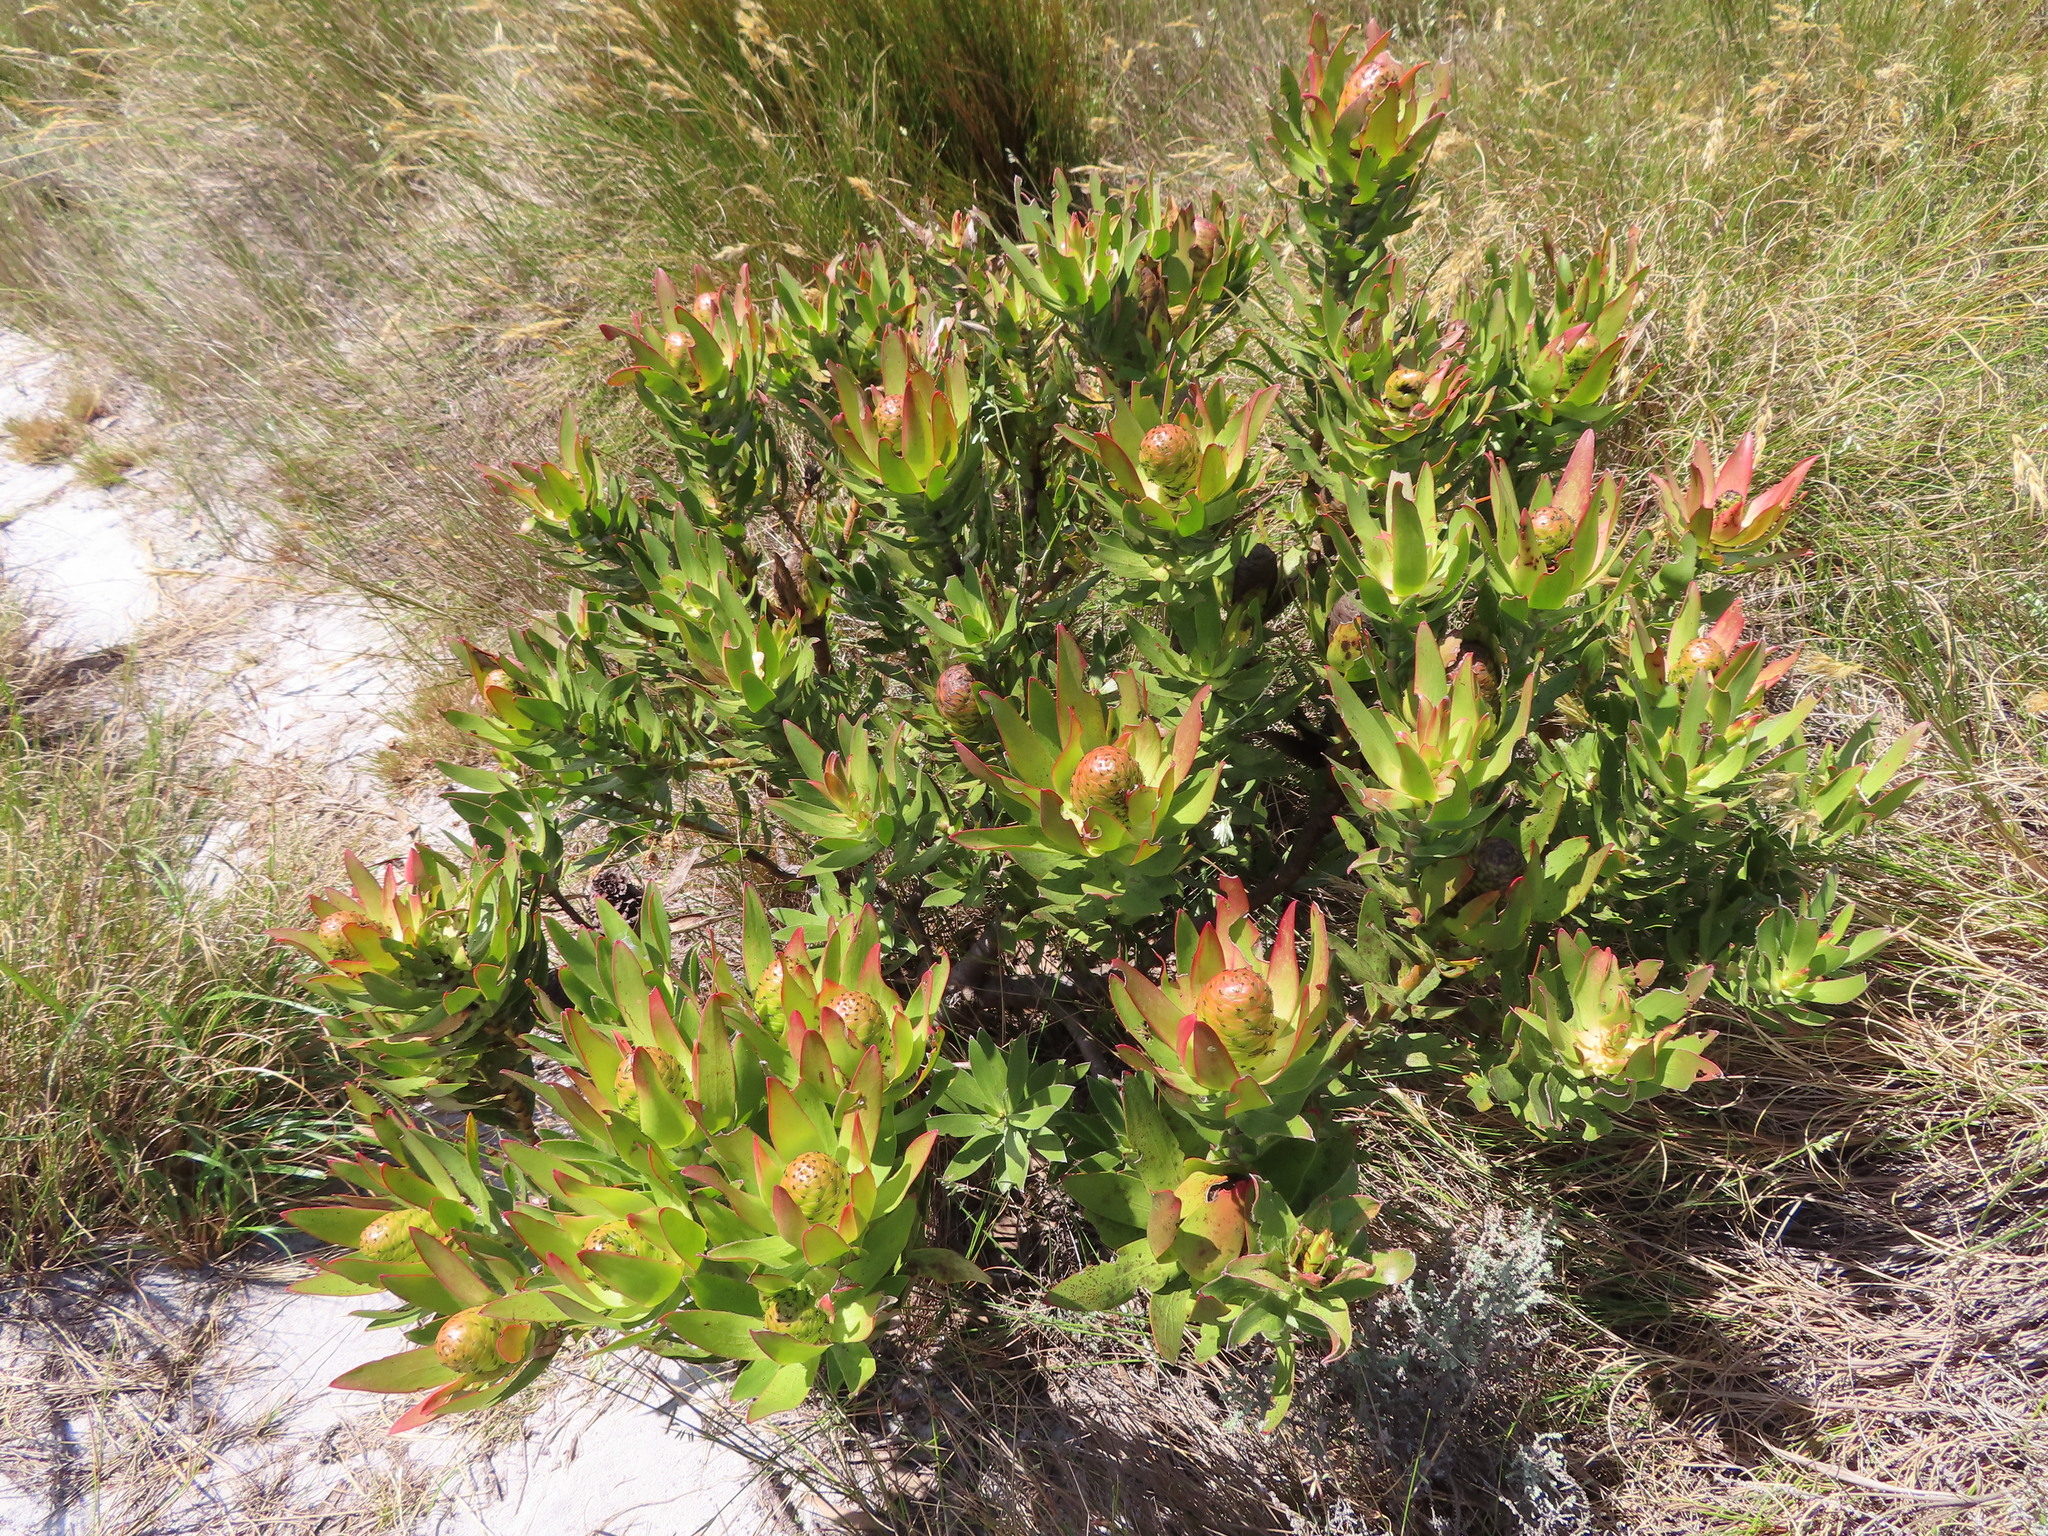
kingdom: Plantae
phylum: Tracheophyta
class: Magnoliopsida
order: Proteales
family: Proteaceae
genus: Leucadendron
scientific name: Leucadendron spissifolium
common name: Spear-leaf conebush
